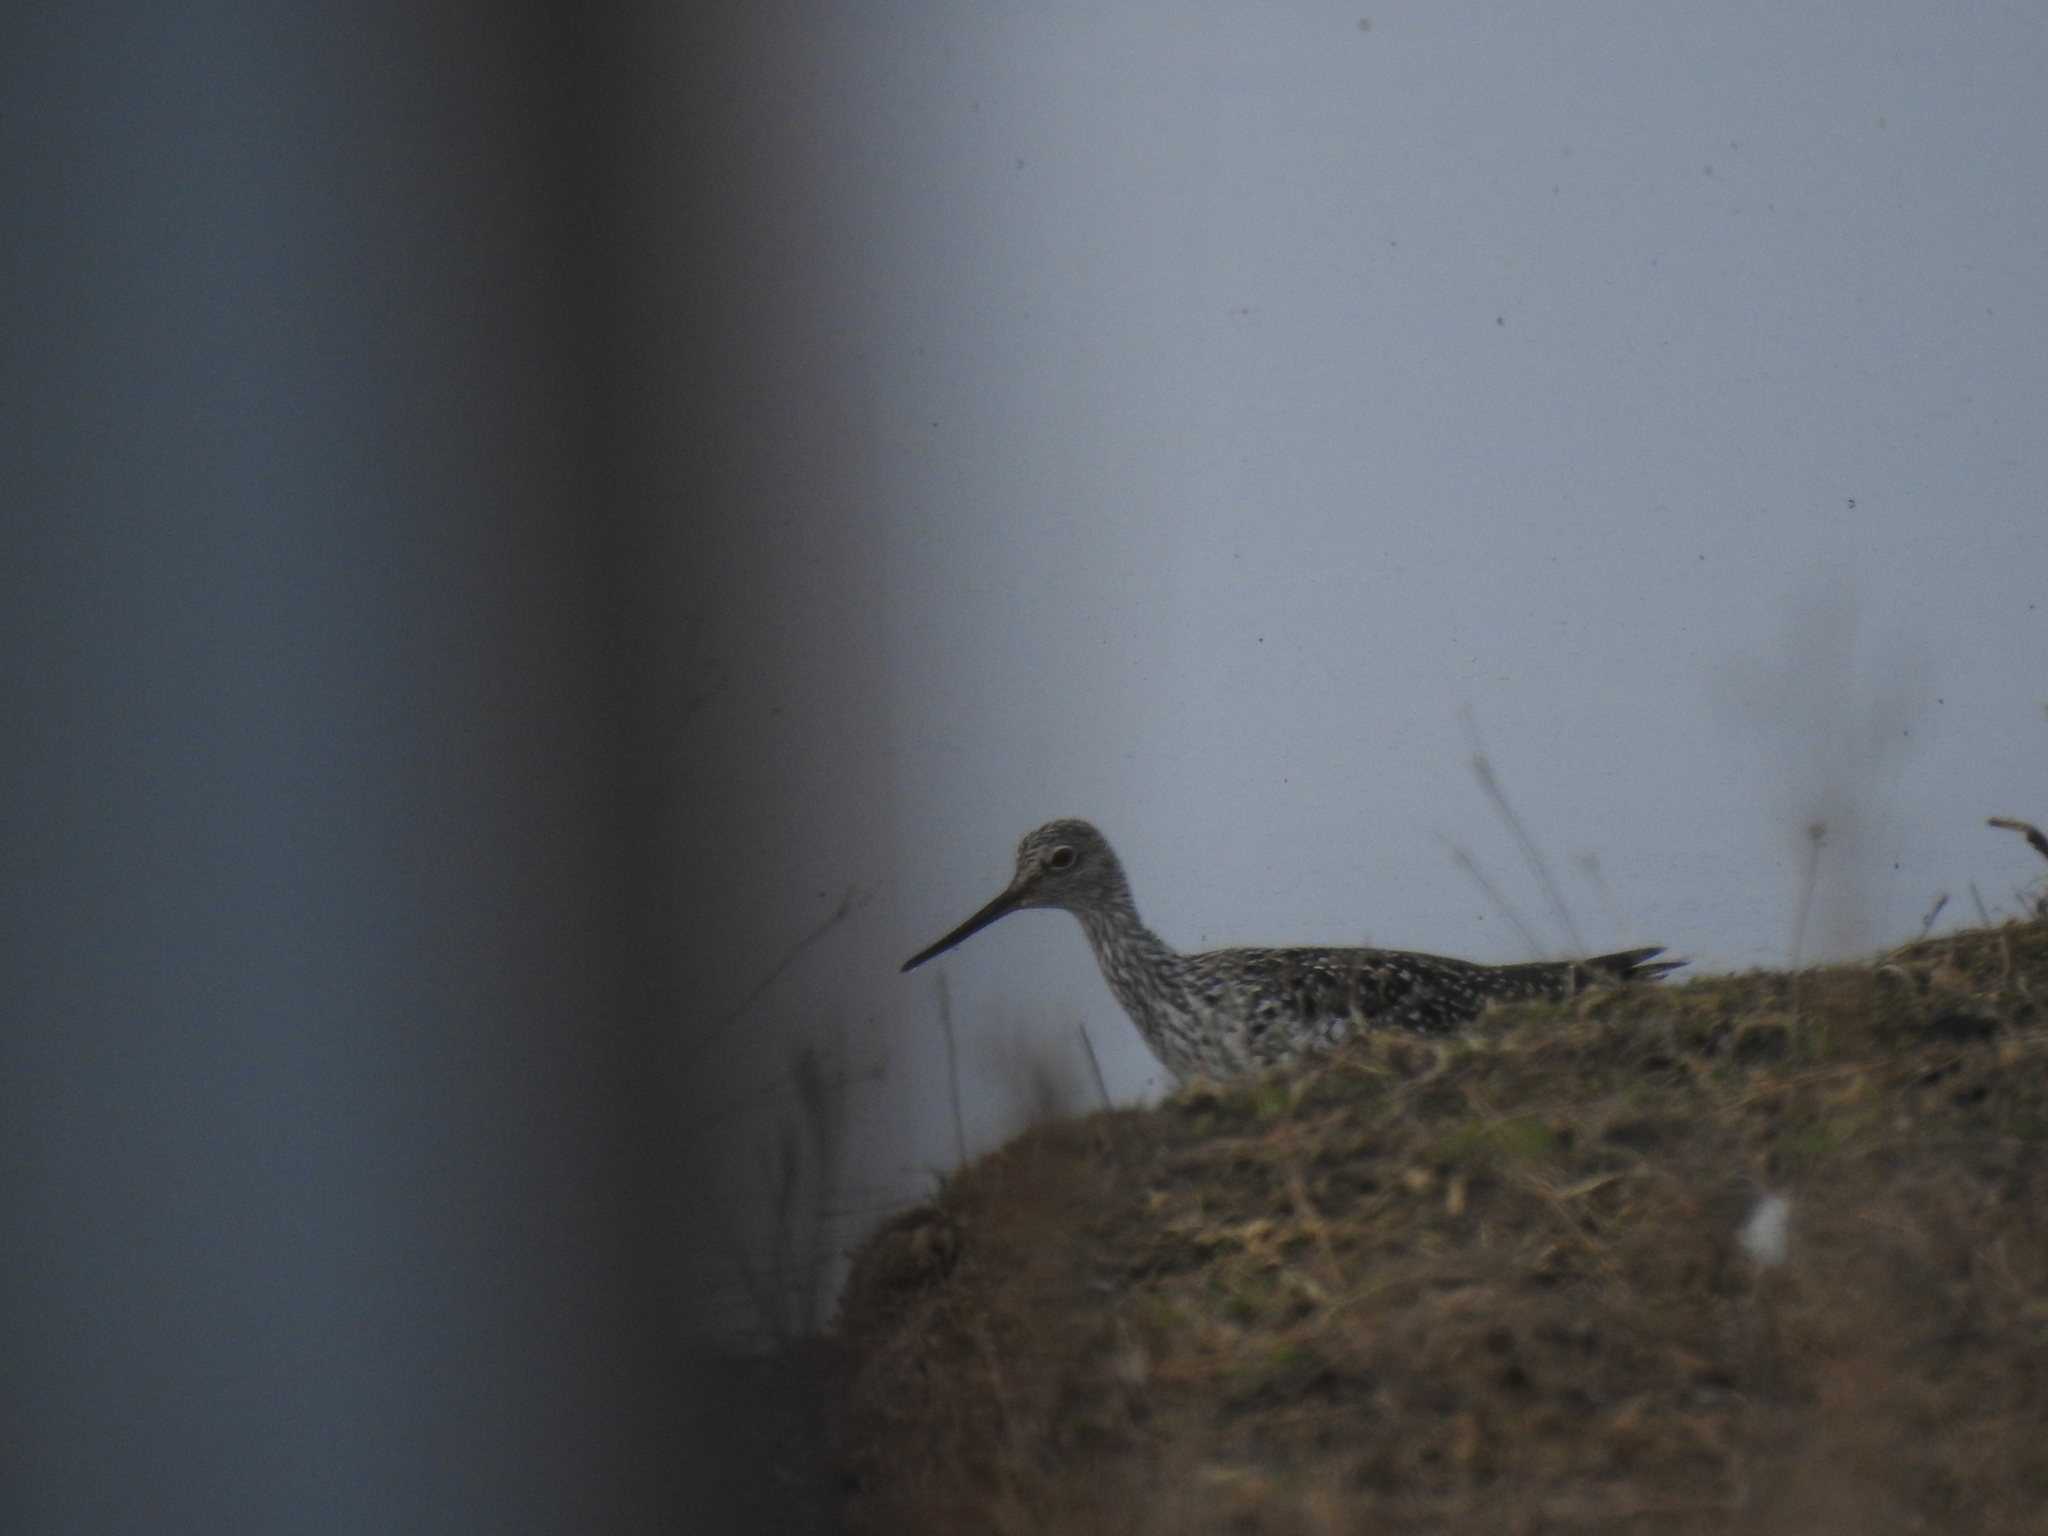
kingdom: Animalia
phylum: Chordata
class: Aves
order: Charadriiformes
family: Scolopacidae
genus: Tringa
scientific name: Tringa melanoleuca
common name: Greater yellowlegs
